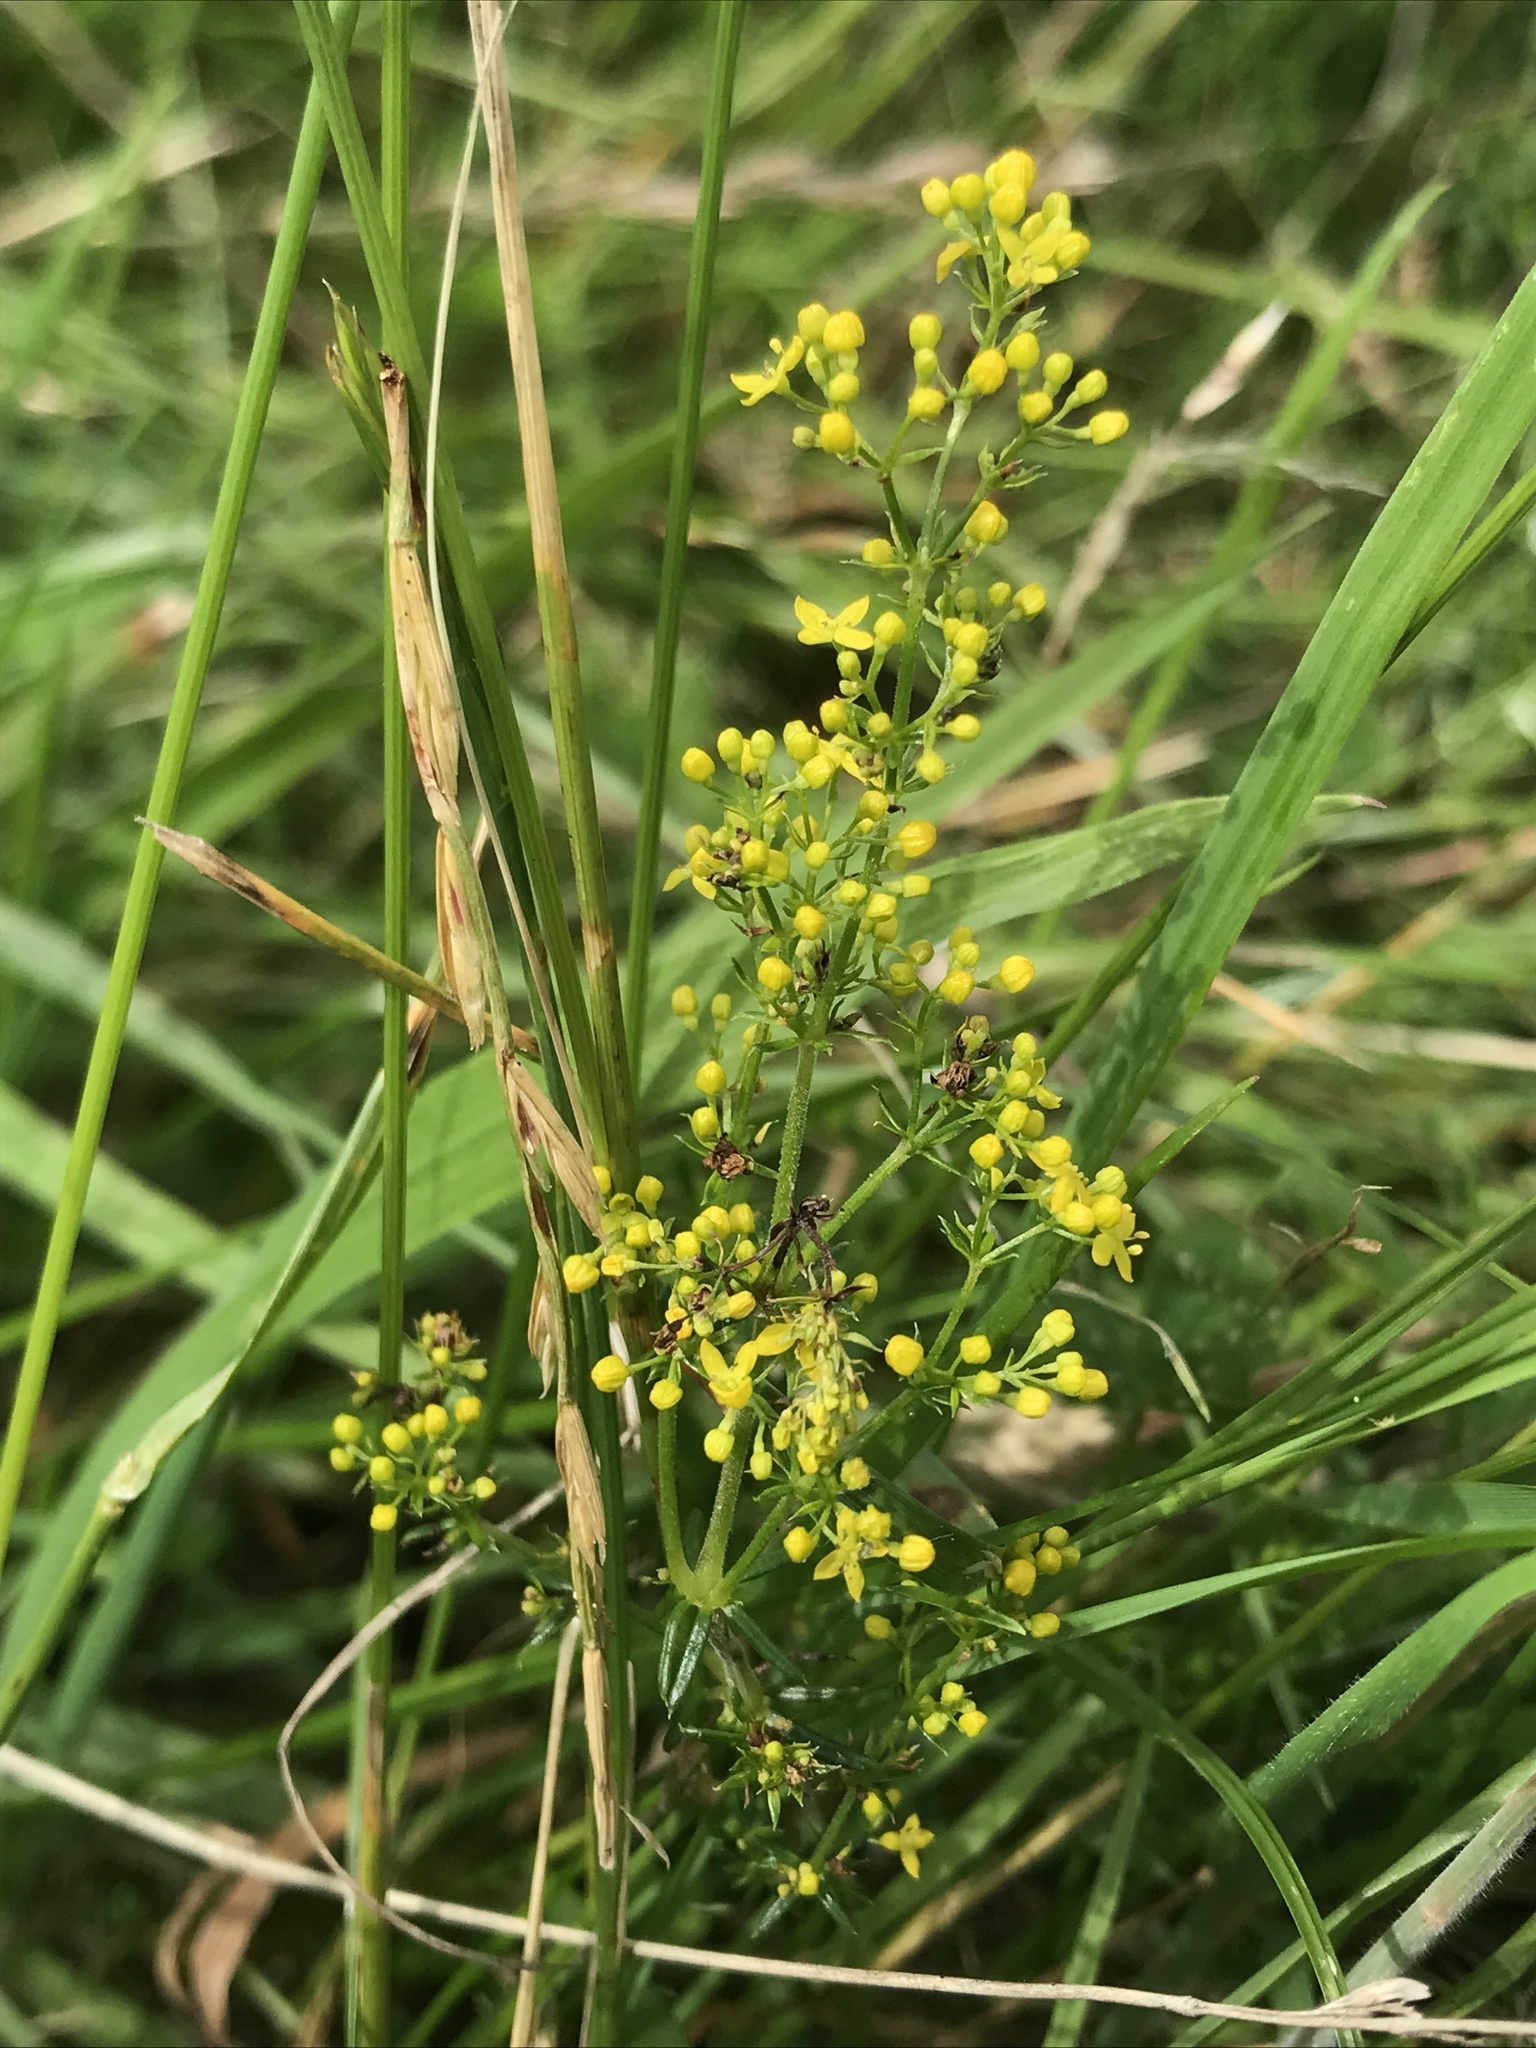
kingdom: Plantae
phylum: Tracheophyta
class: Magnoliopsida
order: Gentianales
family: Rubiaceae
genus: Galium
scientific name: Galium verum
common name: Lady's bedstraw
